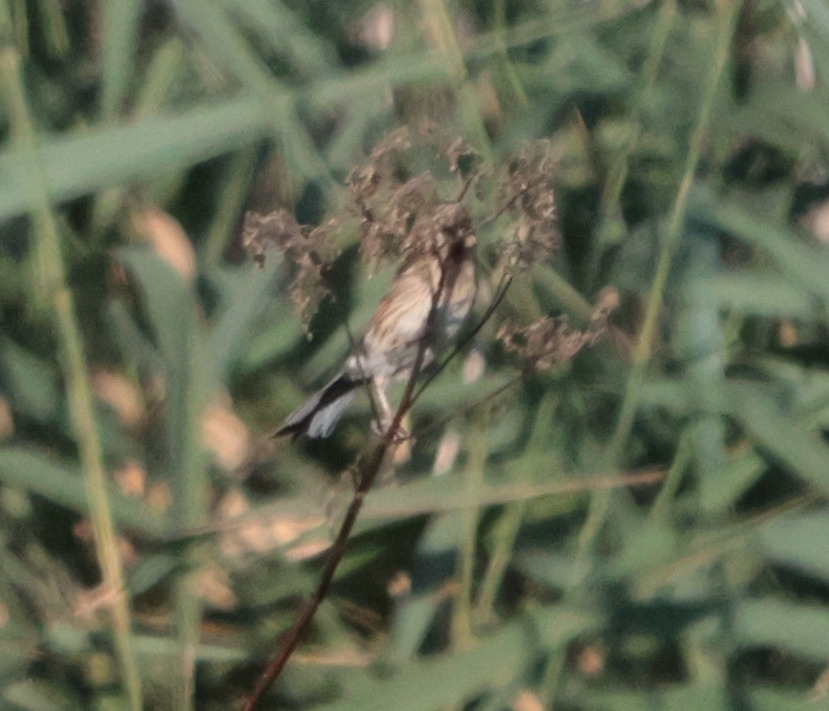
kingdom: Animalia
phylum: Chordata
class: Aves
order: Passeriformes
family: Emberizidae
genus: Emberiza
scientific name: Emberiza schoeniclus
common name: Reed bunting
